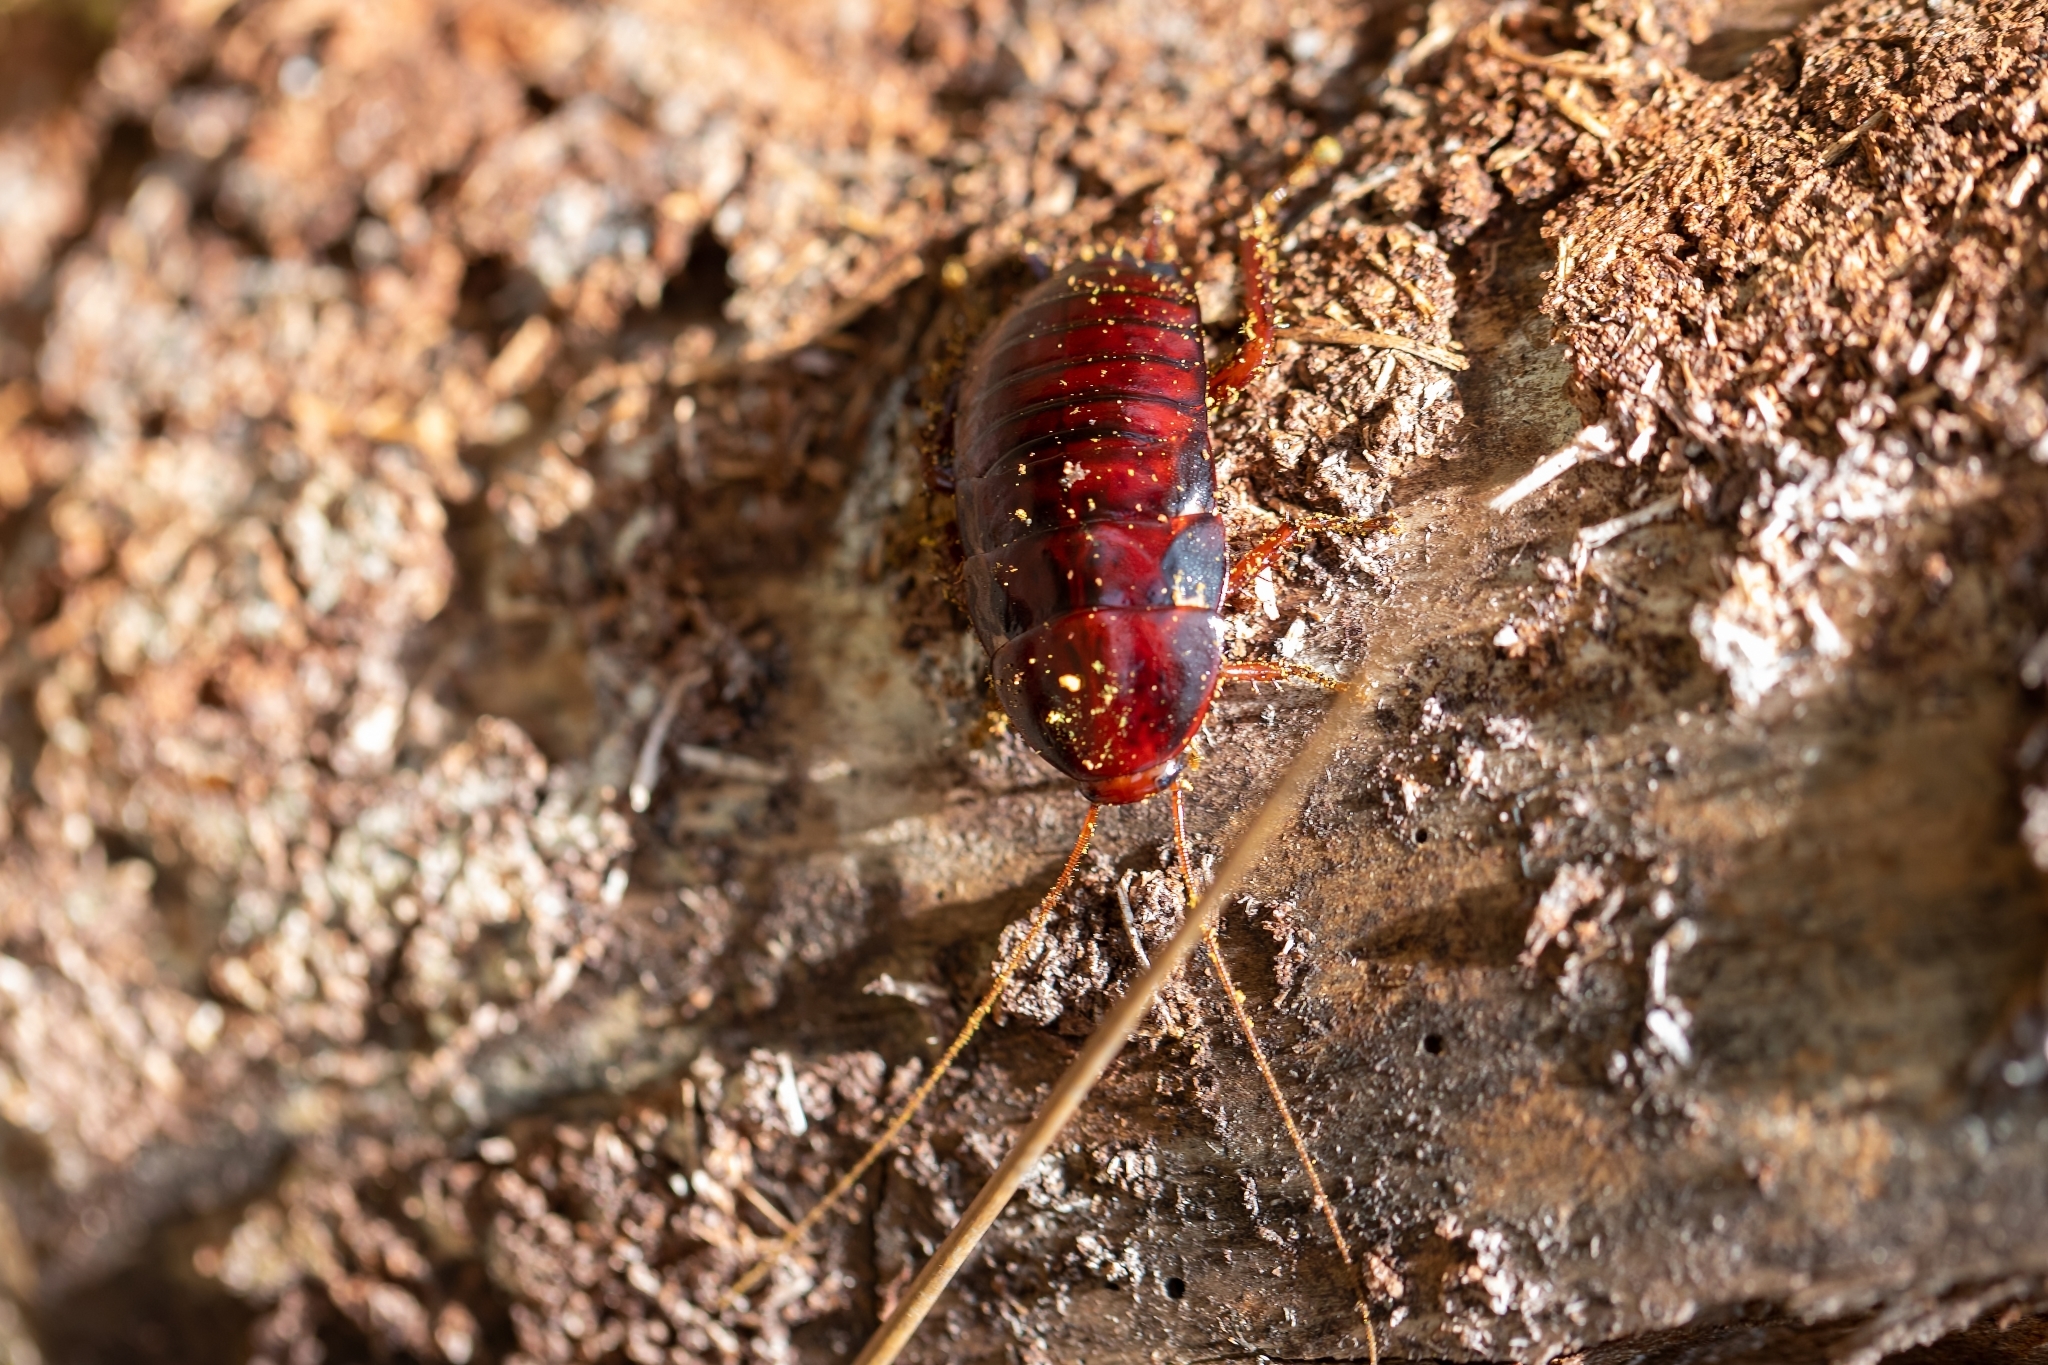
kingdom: Animalia
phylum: Arthropoda
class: Insecta
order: Blattodea
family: Blattidae
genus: Eurycotis
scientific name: Eurycotis floridana
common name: Florida cockroach
